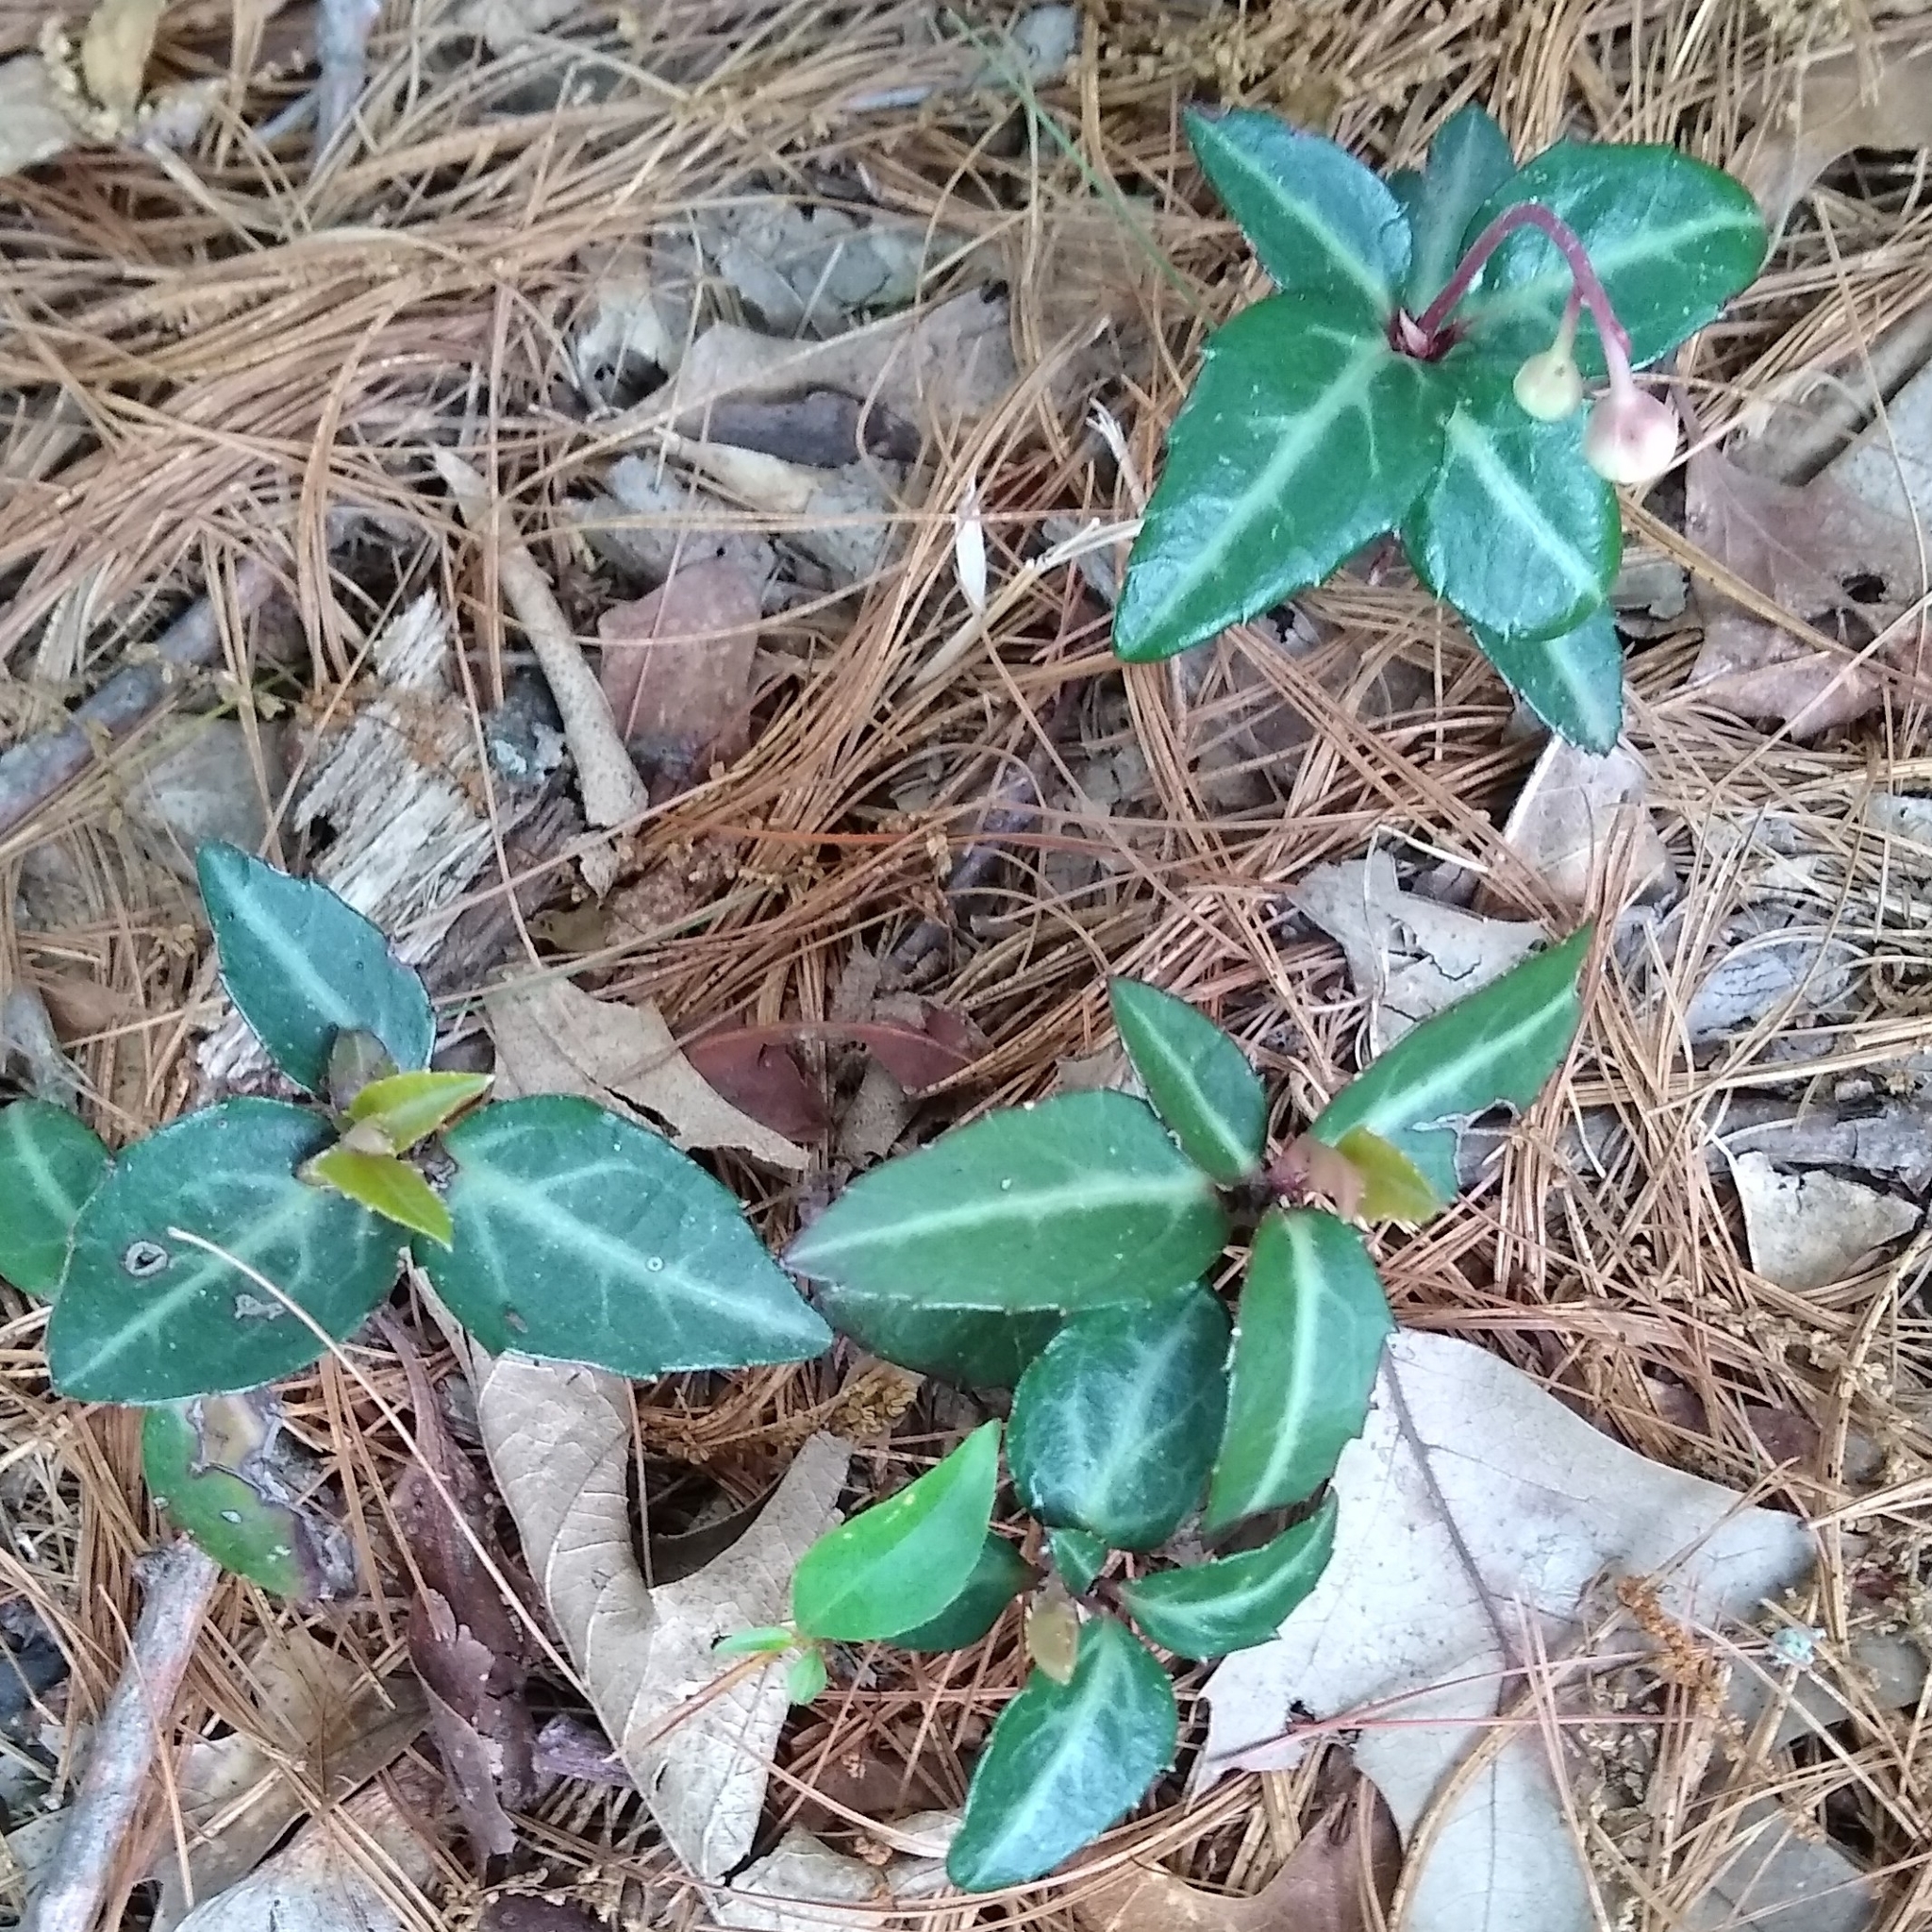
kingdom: Plantae
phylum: Tracheophyta
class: Magnoliopsida
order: Ericales
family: Ericaceae
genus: Chimaphila
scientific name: Chimaphila maculata
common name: Spotted pipsissewa
